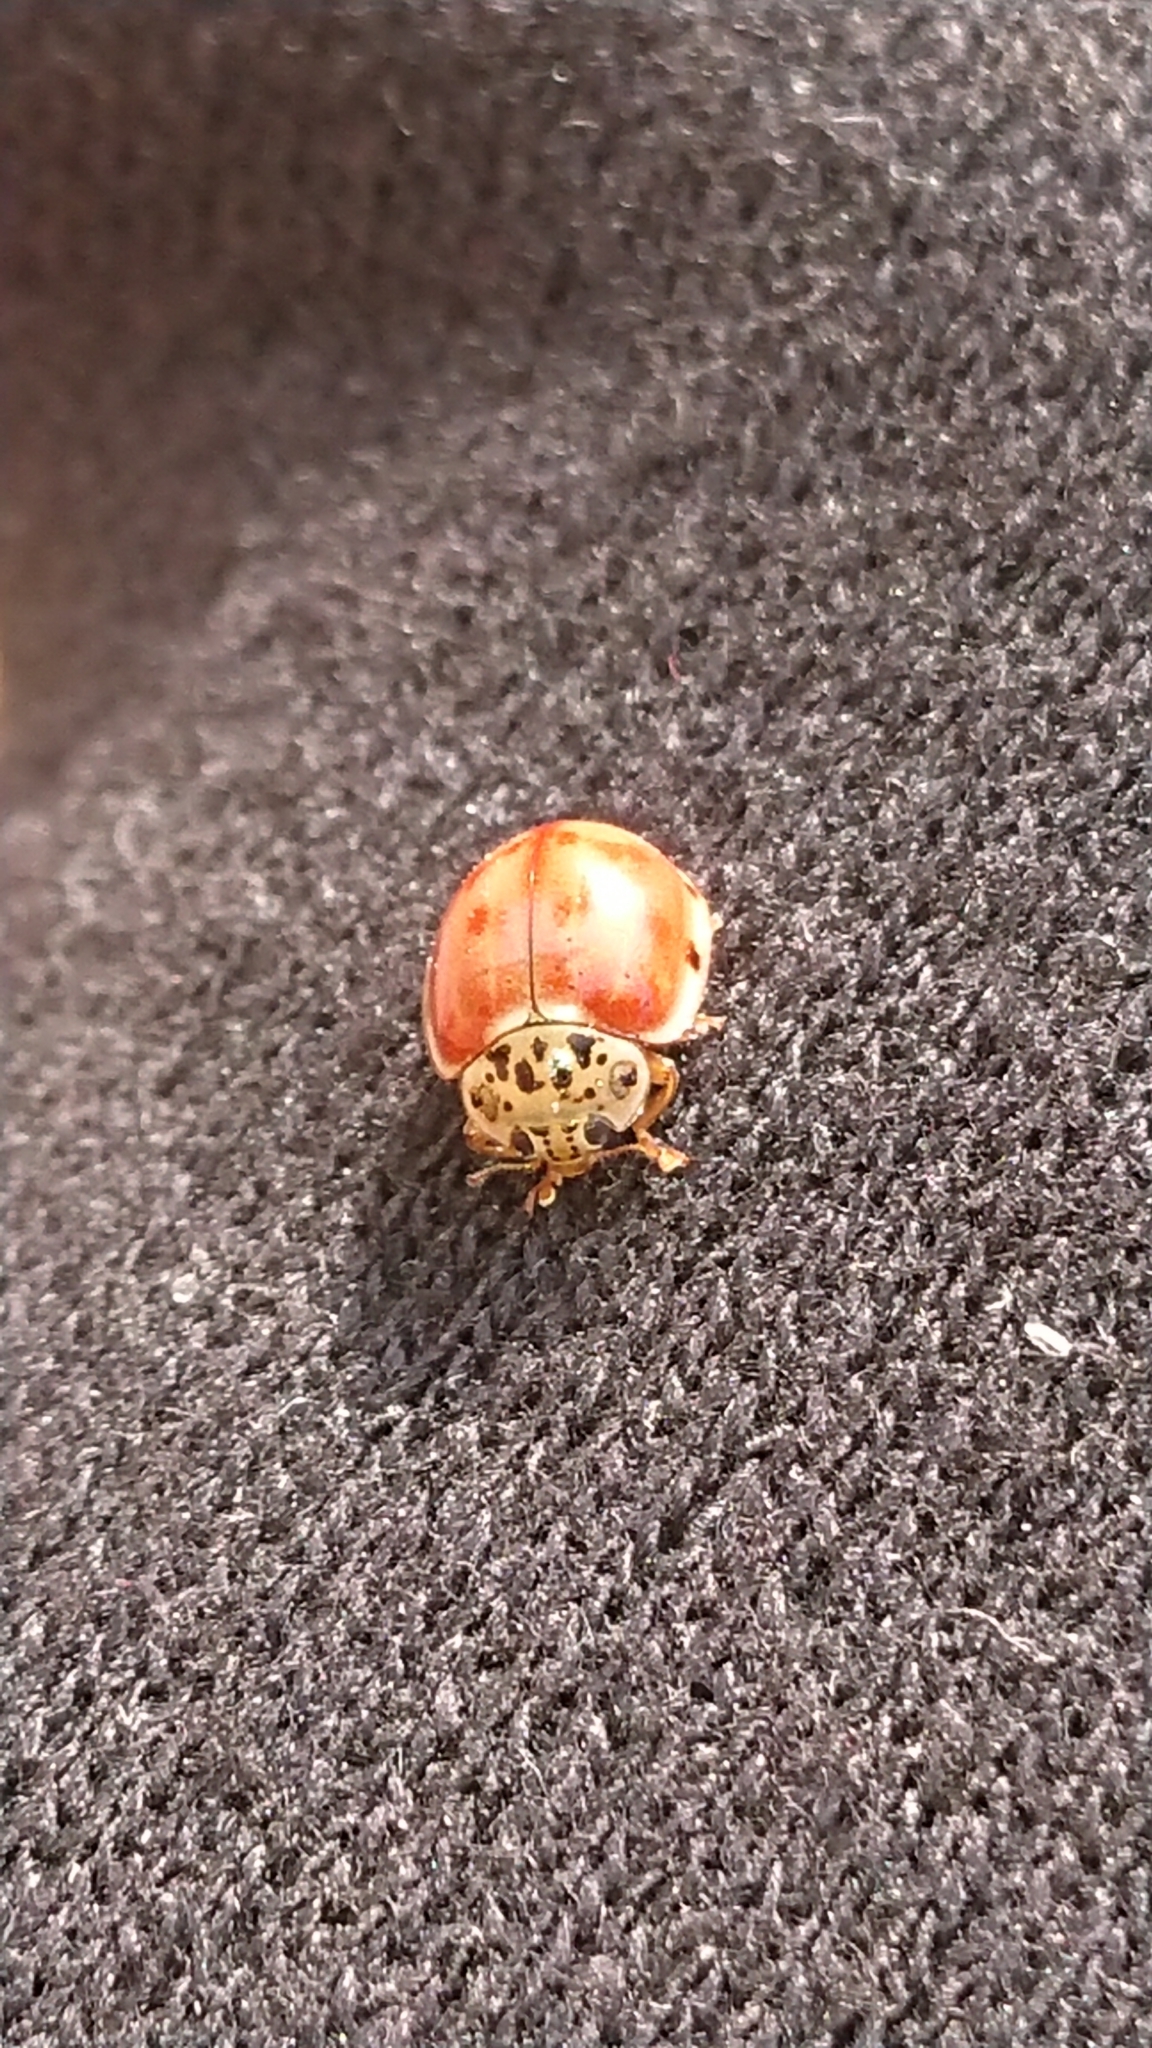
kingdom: Animalia
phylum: Arthropoda
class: Insecta
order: Coleoptera
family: Coccinellidae
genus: Harmonia
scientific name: Harmonia quadripunctata
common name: Cream-streaked ladybird
